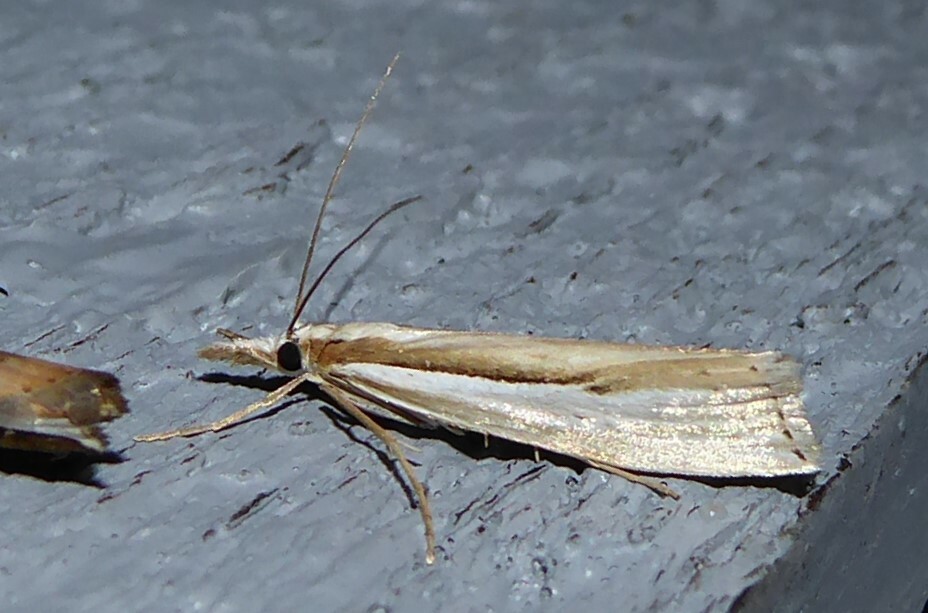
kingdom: Animalia
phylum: Arthropoda
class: Insecta
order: Lepidoptera
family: Crambidae
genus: Orocrambus
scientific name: Orocrambus ramosellus
